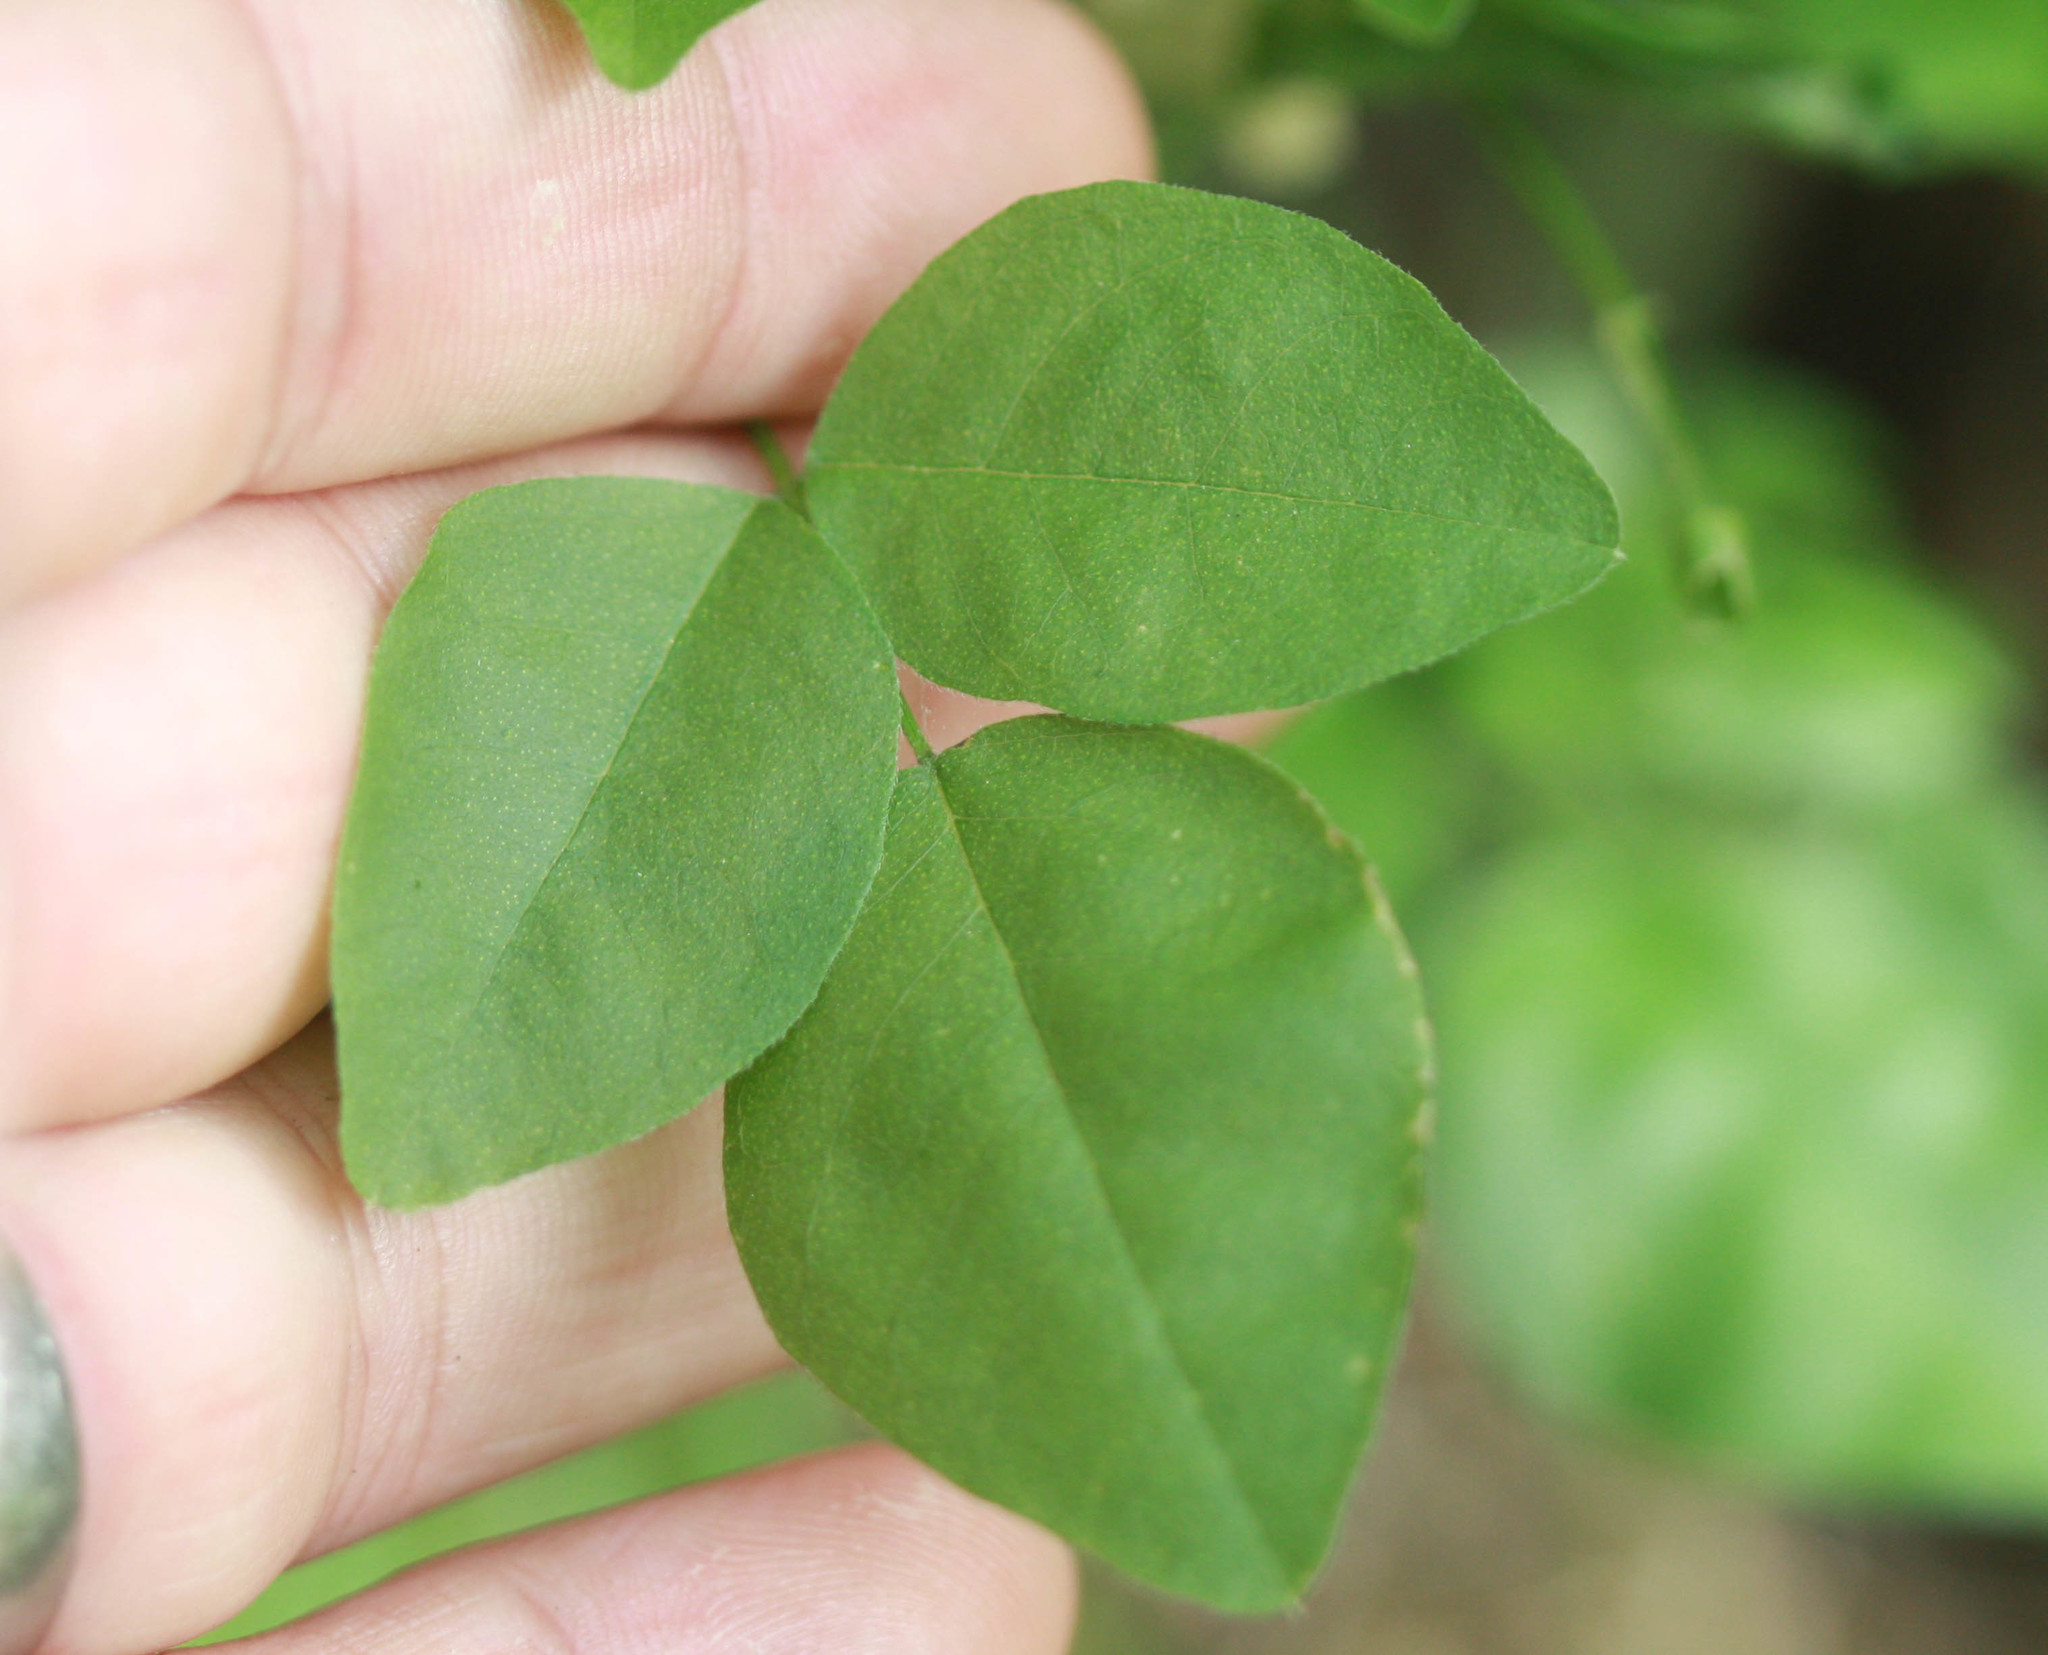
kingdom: Plantae
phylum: Tracheophyta
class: Magnoliopsida
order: Fabales
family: Fabaceae
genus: Rupertia
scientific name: Rupertia physodes
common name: California-tea
